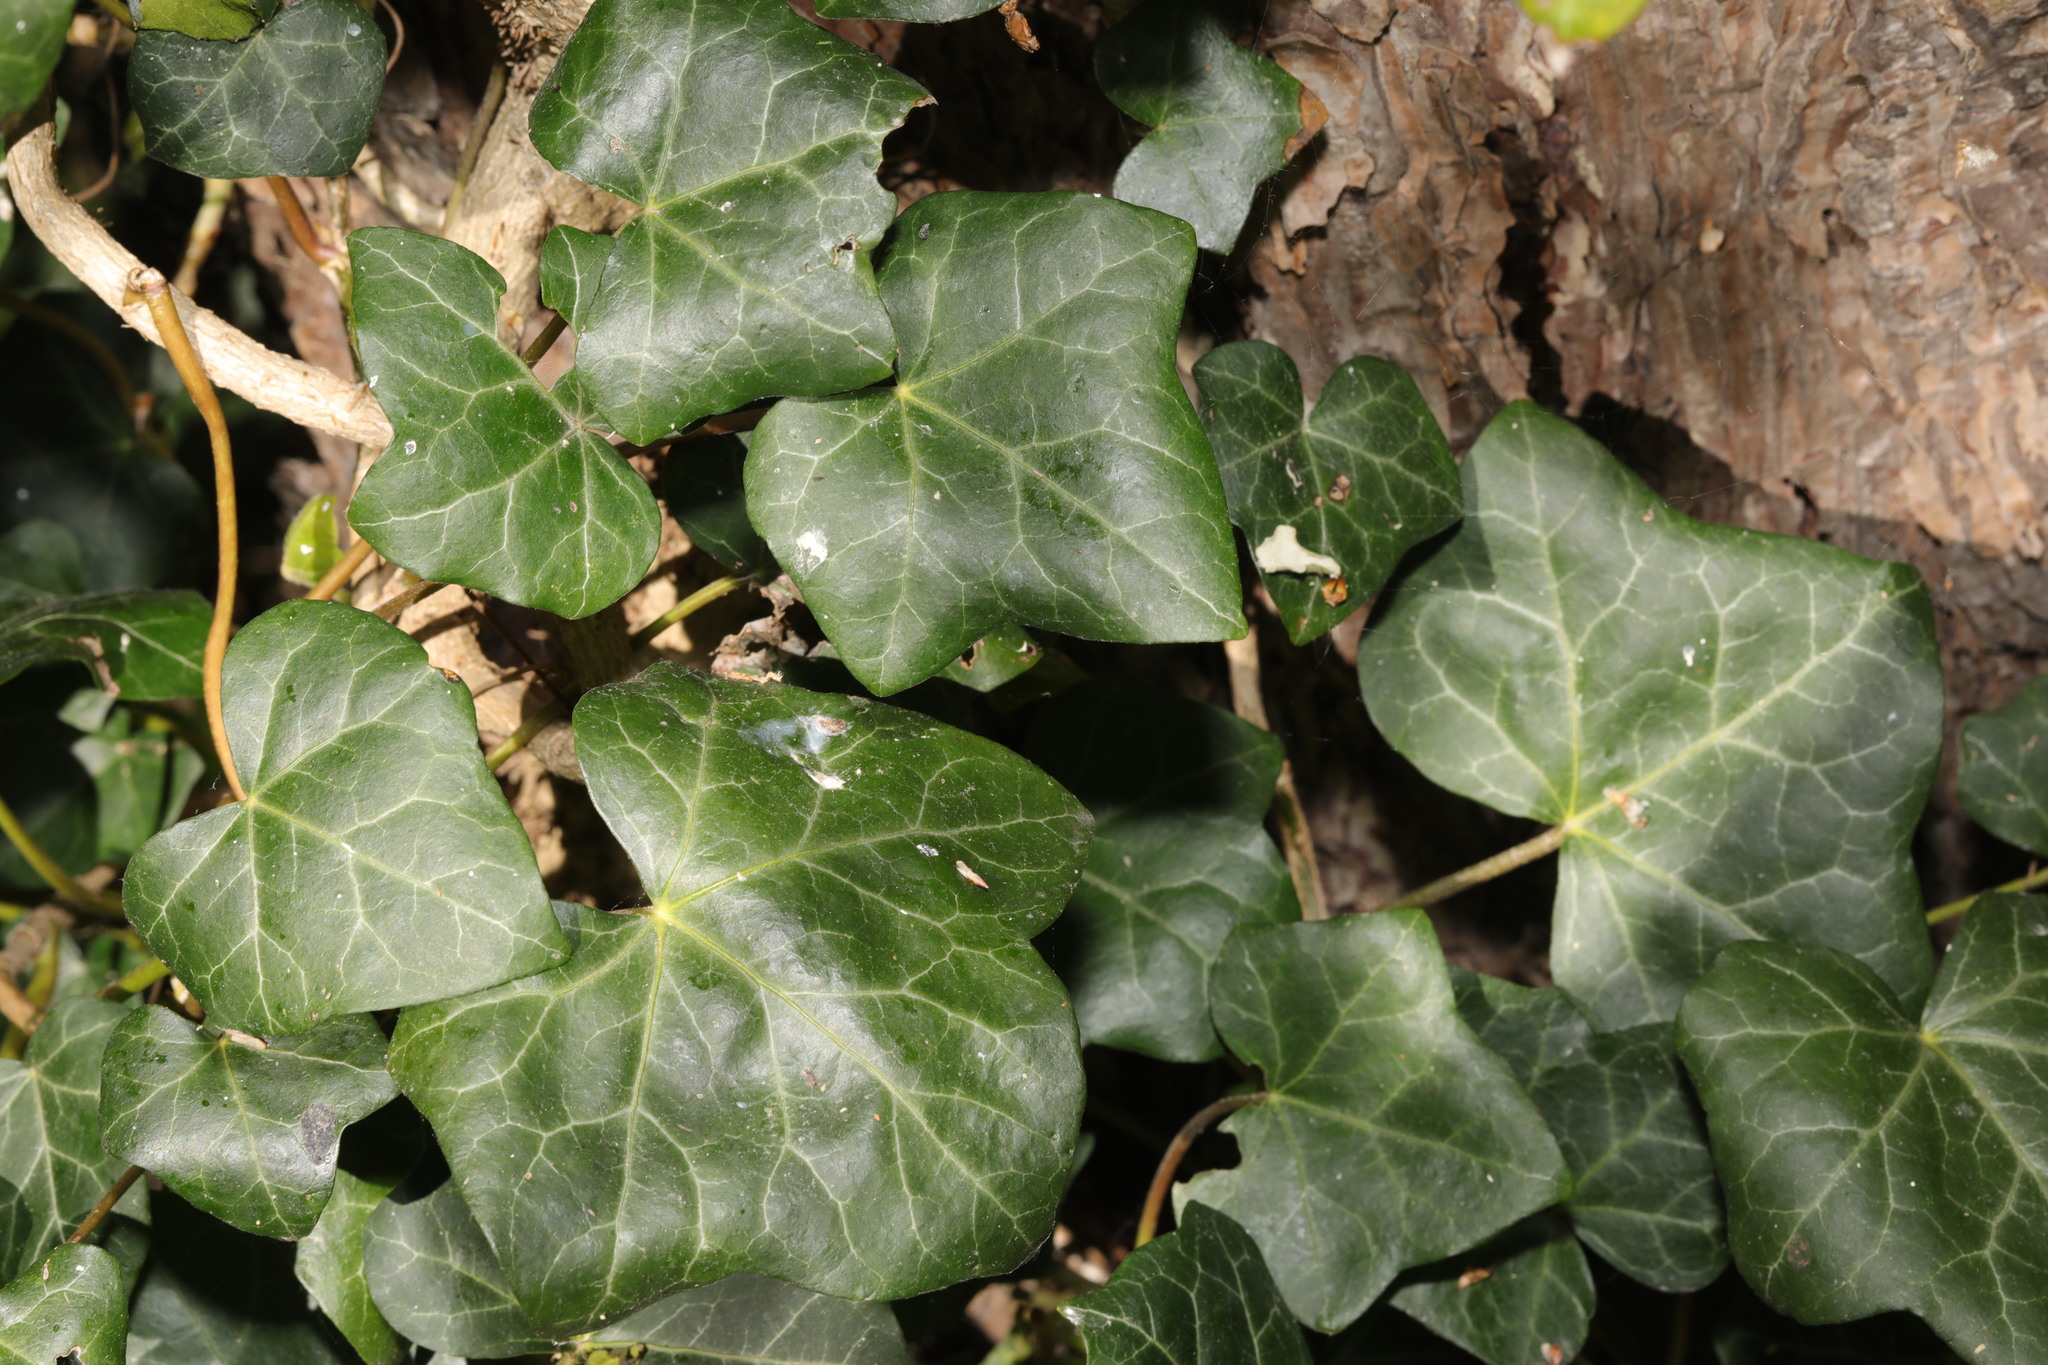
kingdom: Plantae
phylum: Tracheophyta
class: Magnoliopsida
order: Apiales
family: Araliaceae
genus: Hedera
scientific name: Hedera helix
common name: Ivy
